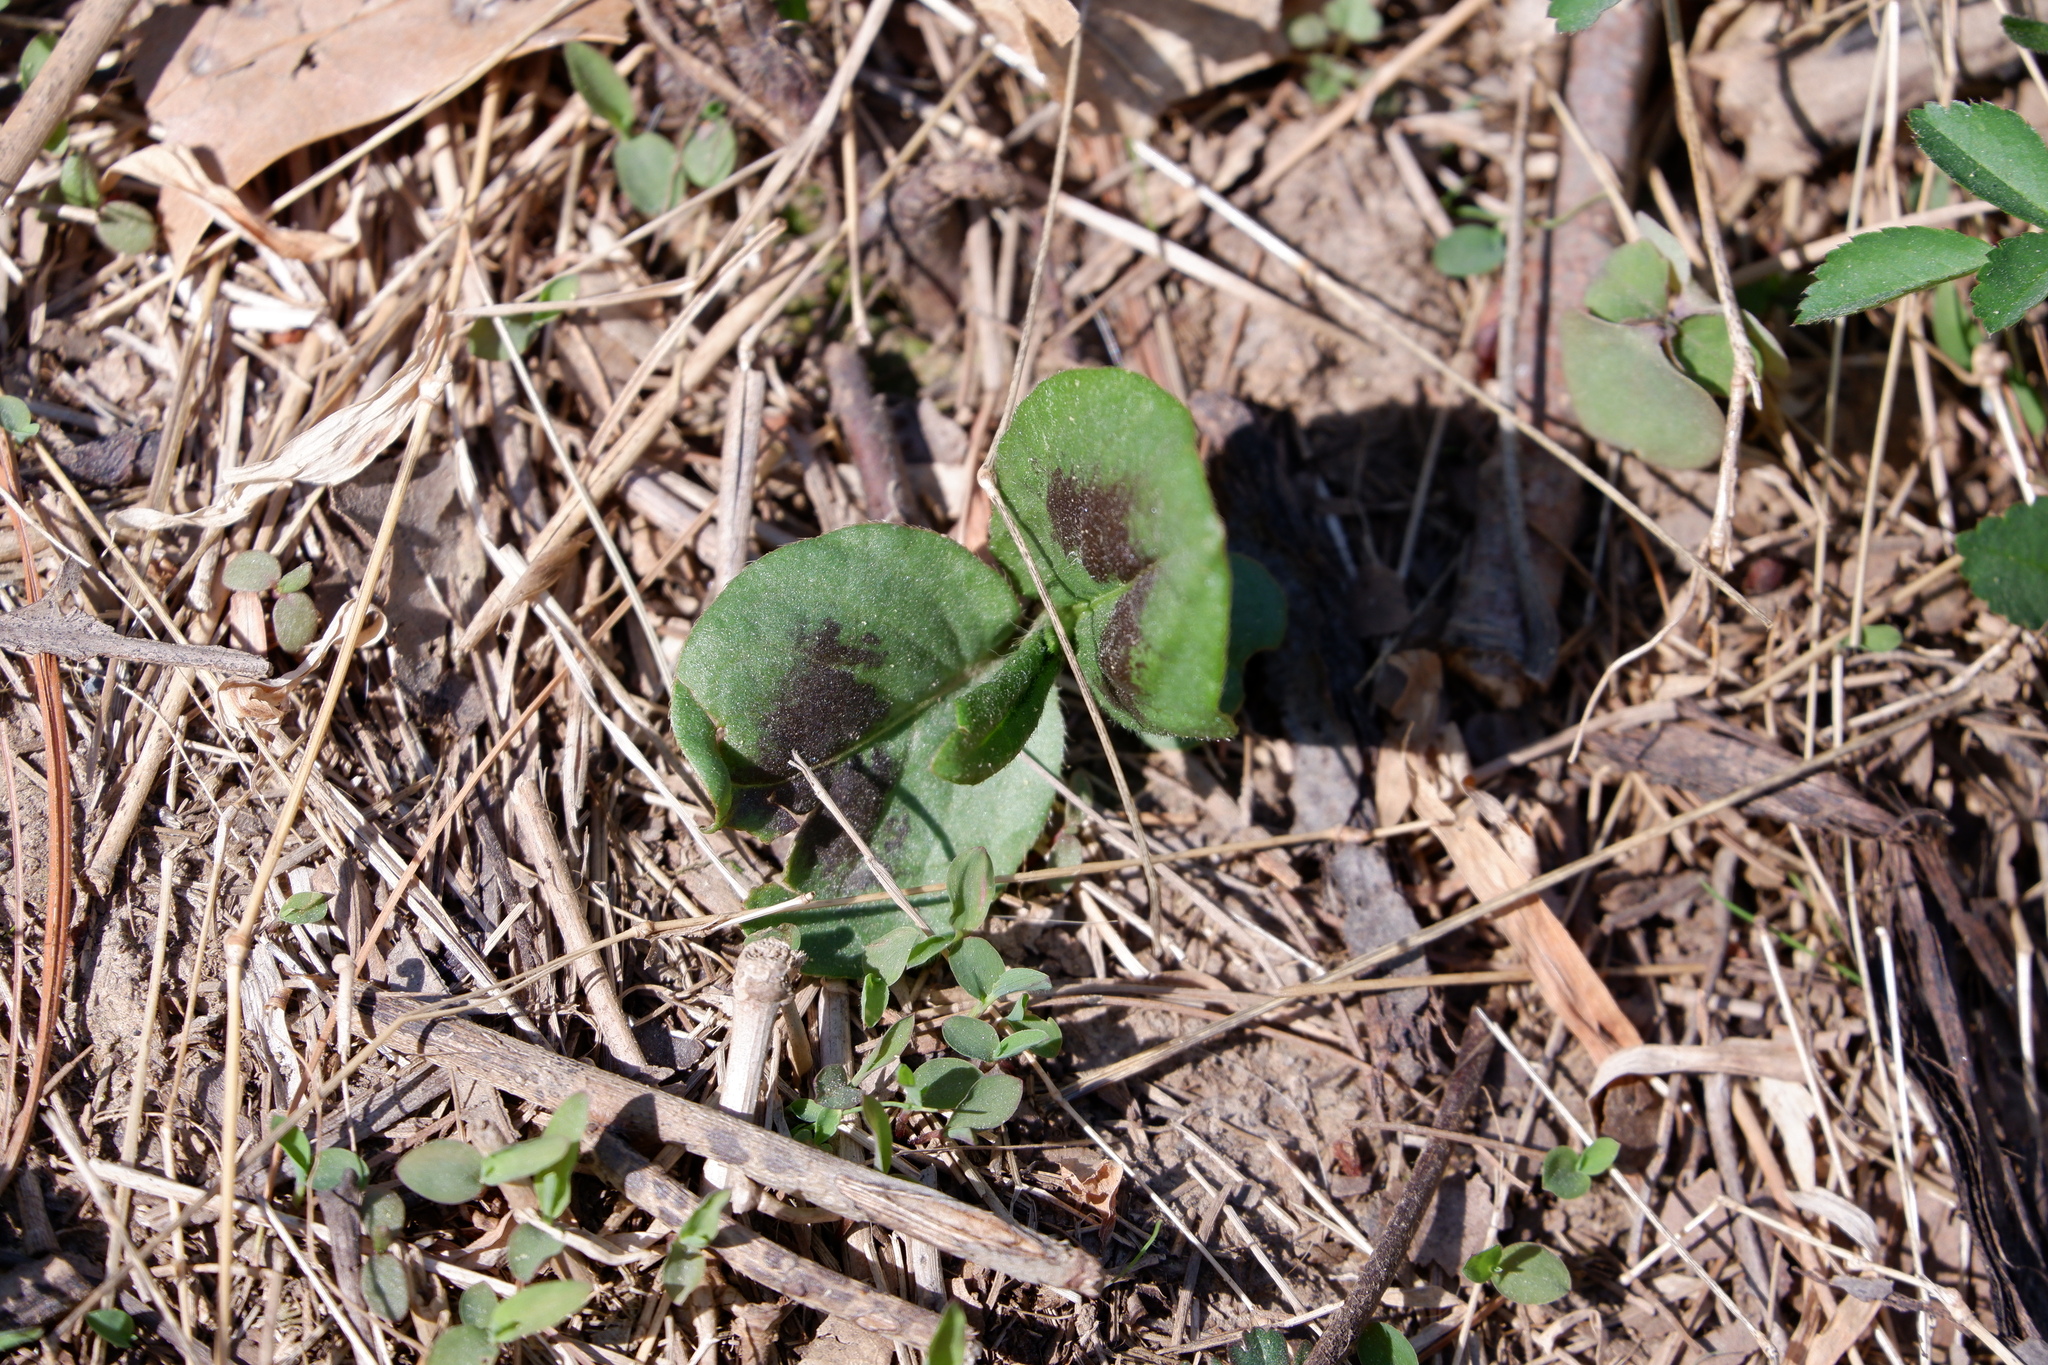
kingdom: Plantae
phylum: Tracheophyta
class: Magnoliopsida
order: Caryophyllales
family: Polygonaceae
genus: Persicaria
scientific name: Persicaria virginiana
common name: Jumpseed
